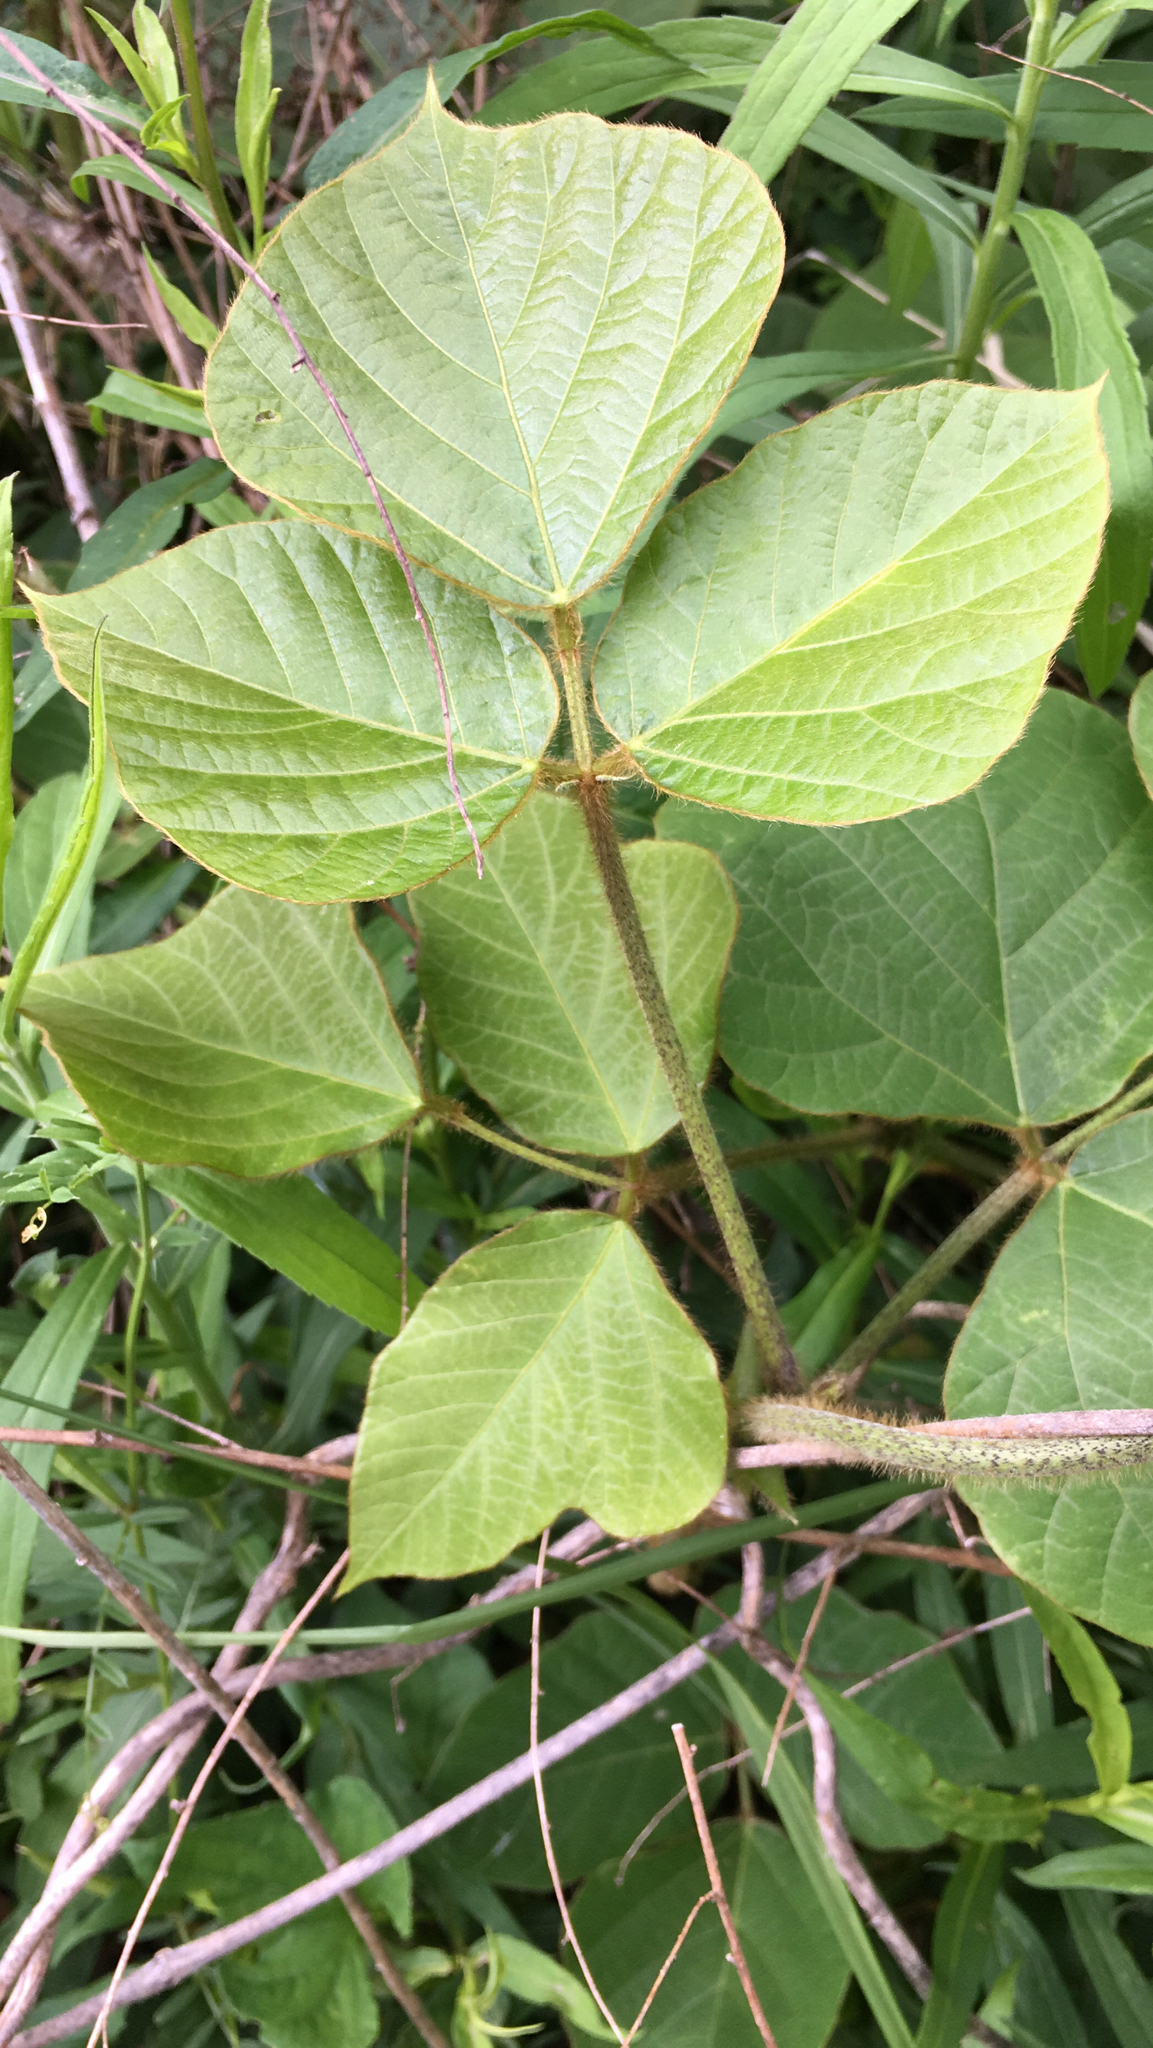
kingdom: Plantae
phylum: Tracheophyta
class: Magnoliopsida
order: Fabales
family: Fabaceae
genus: Pueraria
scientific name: Pueraria montana
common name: Kudzu
